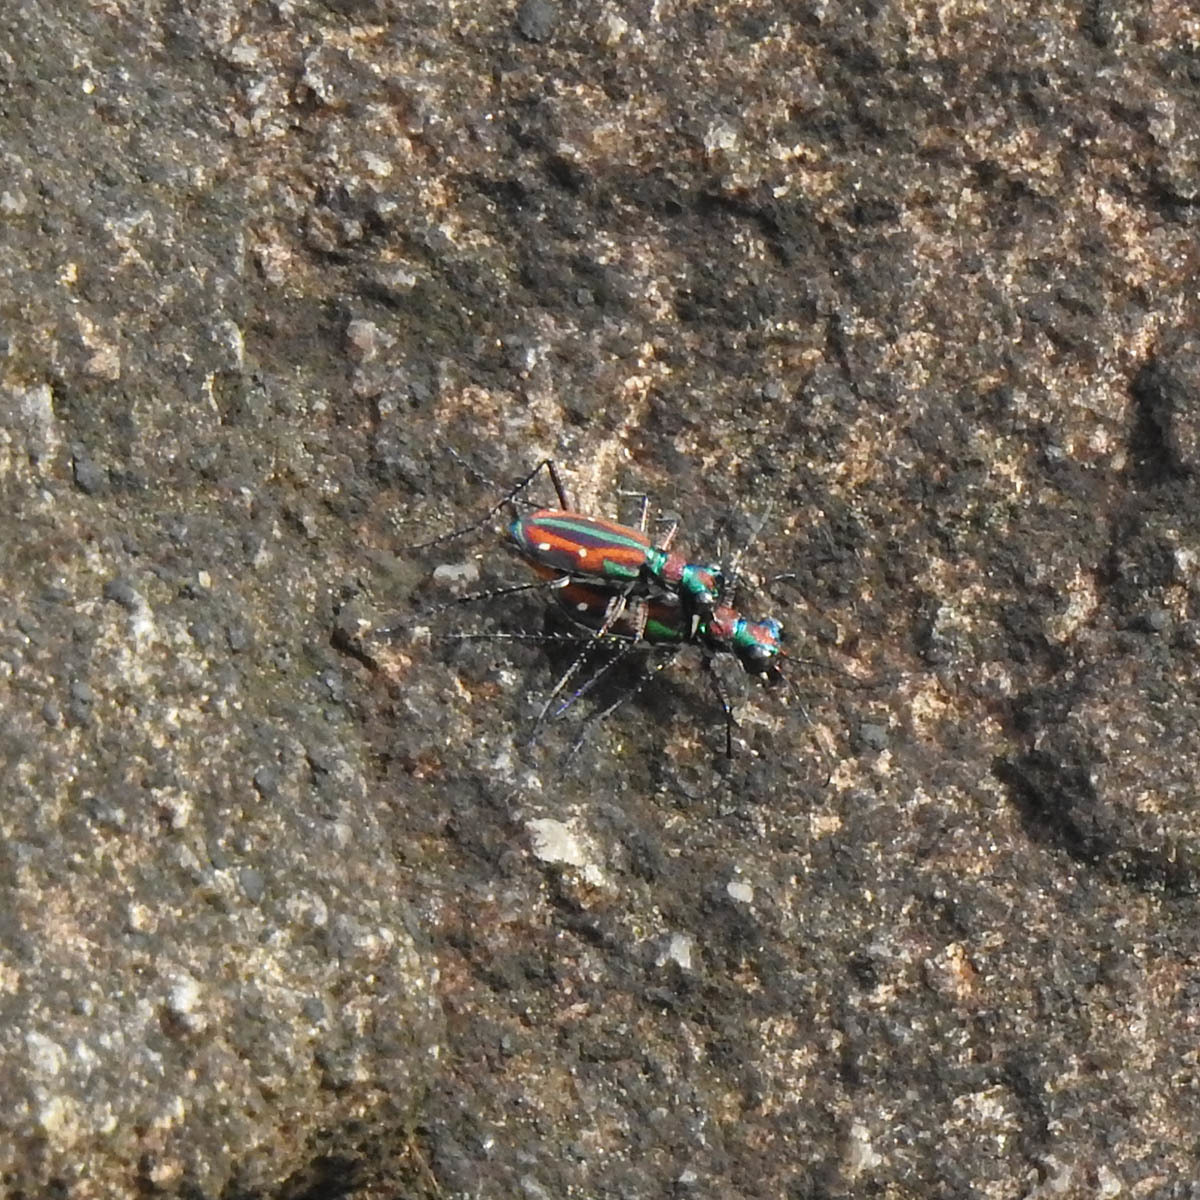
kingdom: Animalia
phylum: Arthropoda
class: Insecta
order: Coleoptera
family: Carabidae
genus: Jansenia
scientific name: Jansenia rugosiceps
